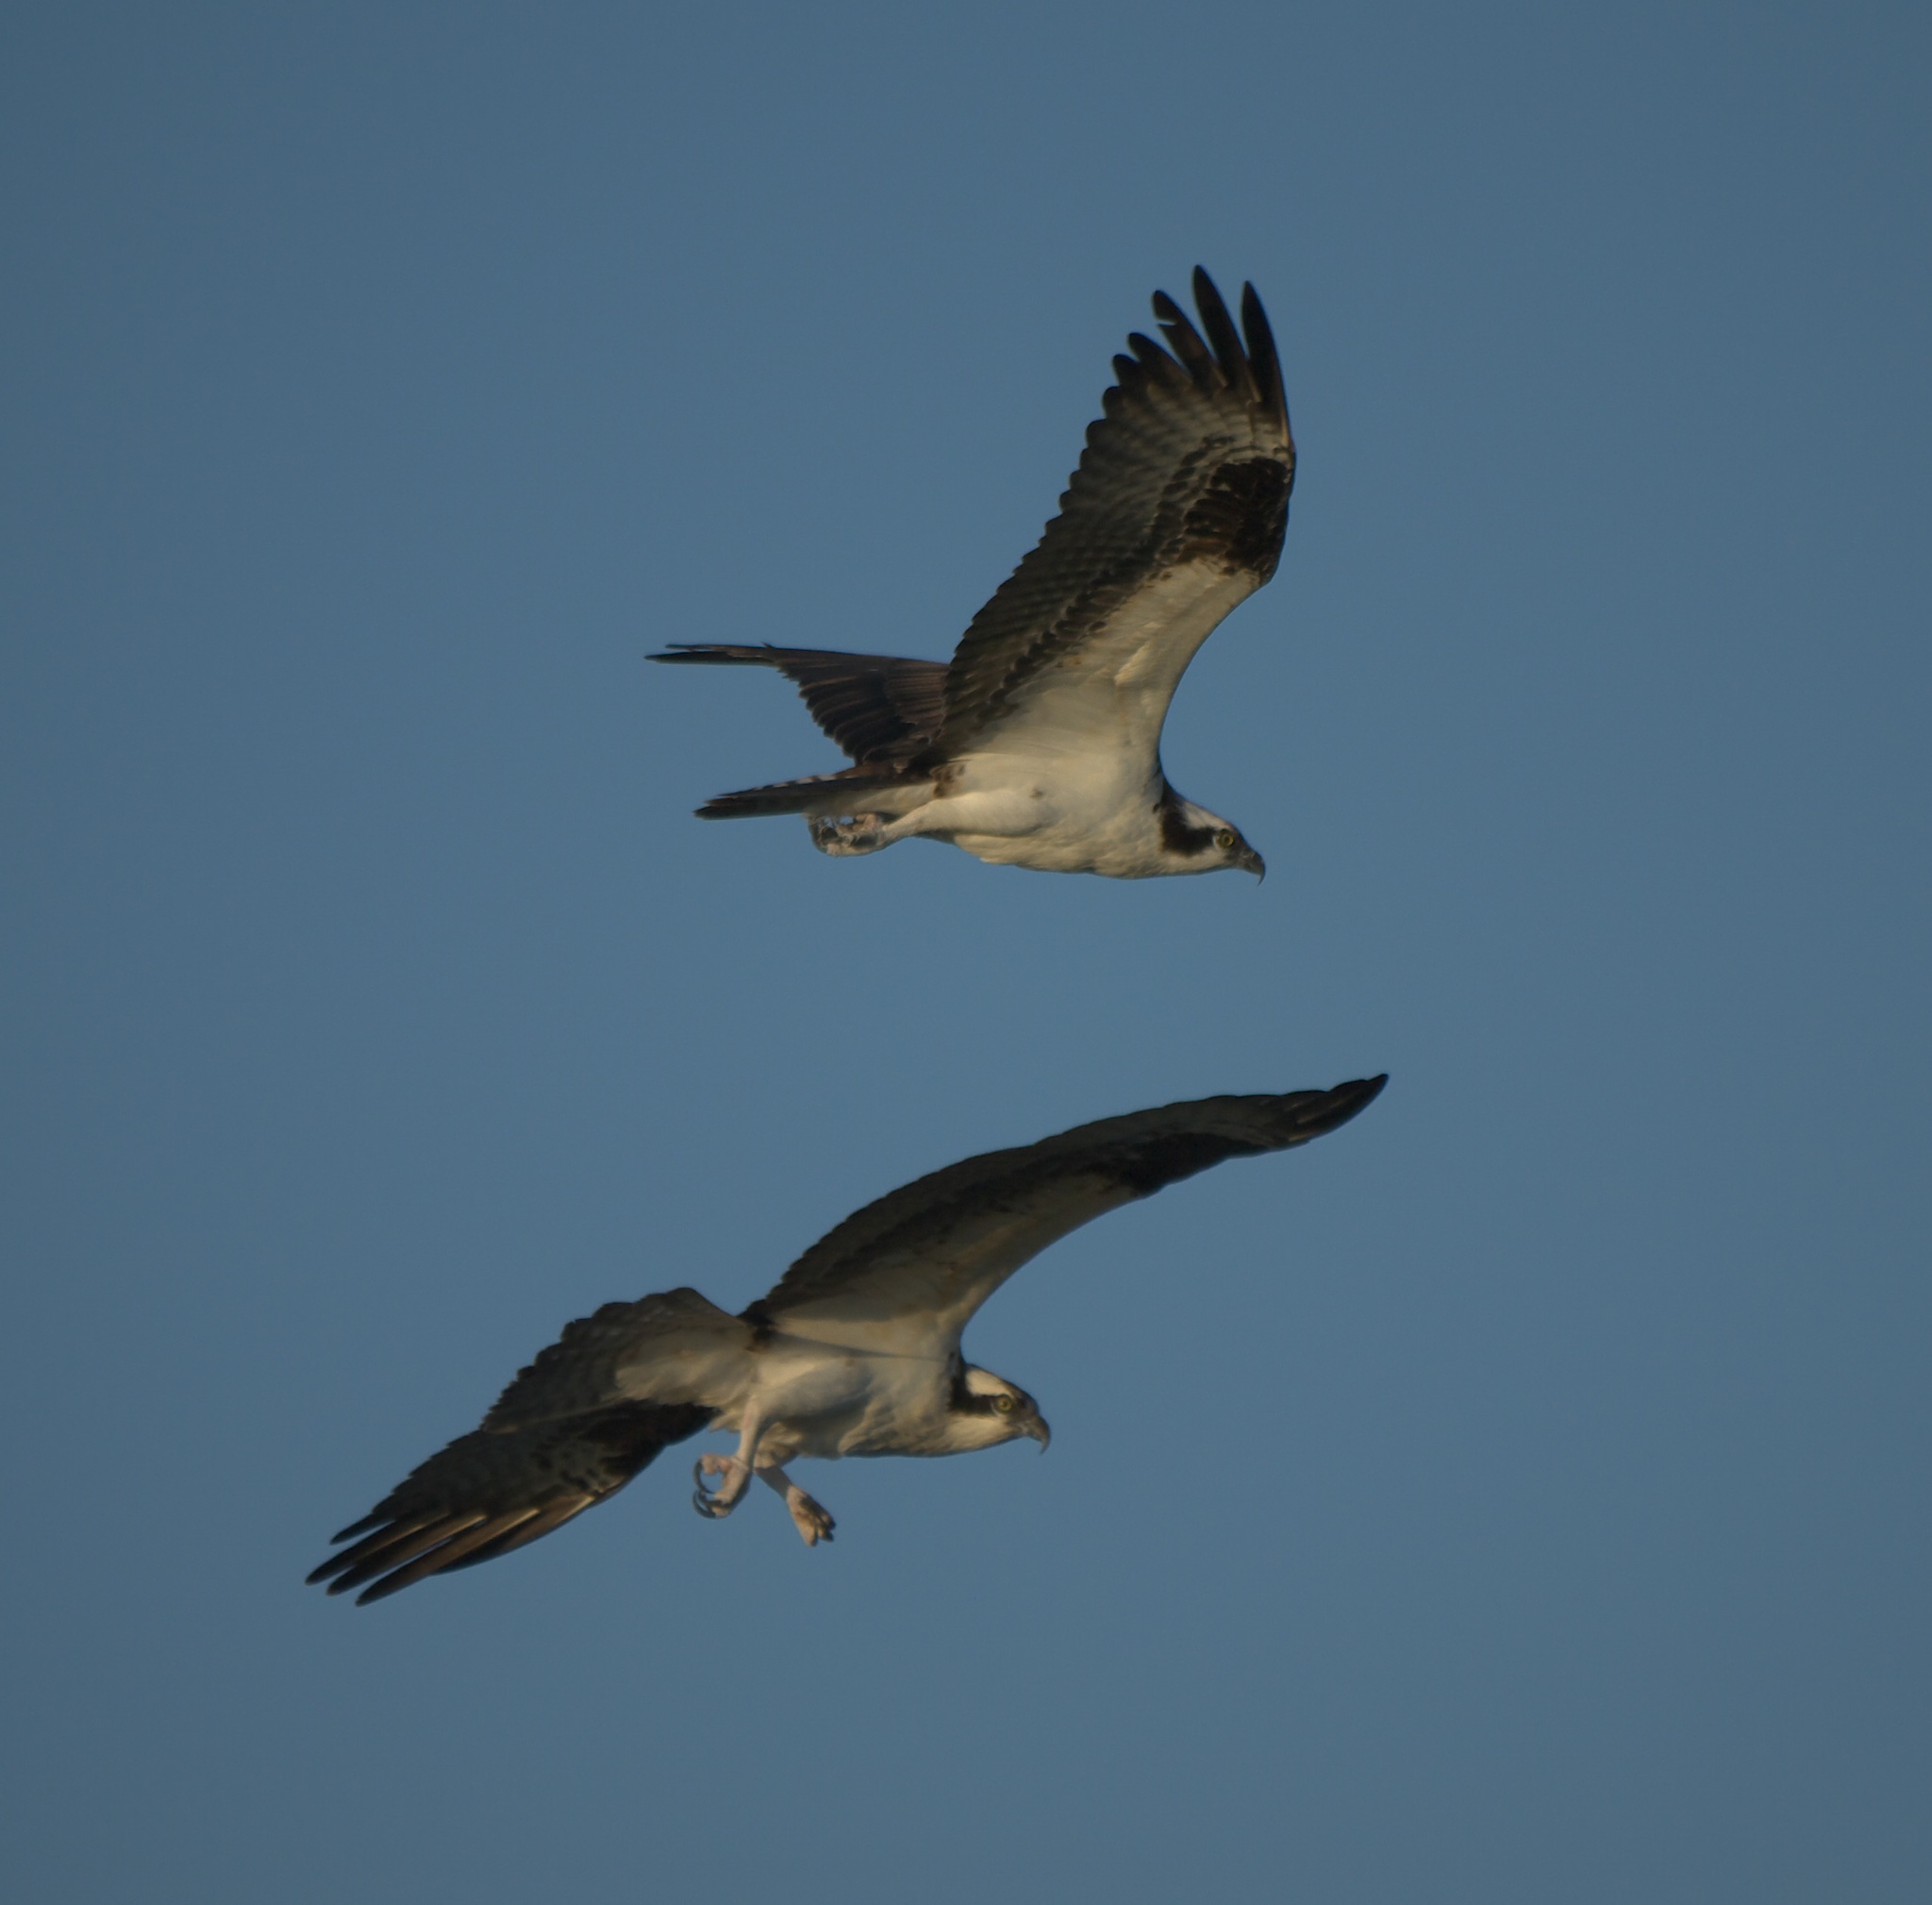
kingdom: Animalia
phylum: Chordata
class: Aves
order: Accipitriformes
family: Pandionidae
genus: Pandion
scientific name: Pandion haliaetus
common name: Osprey
